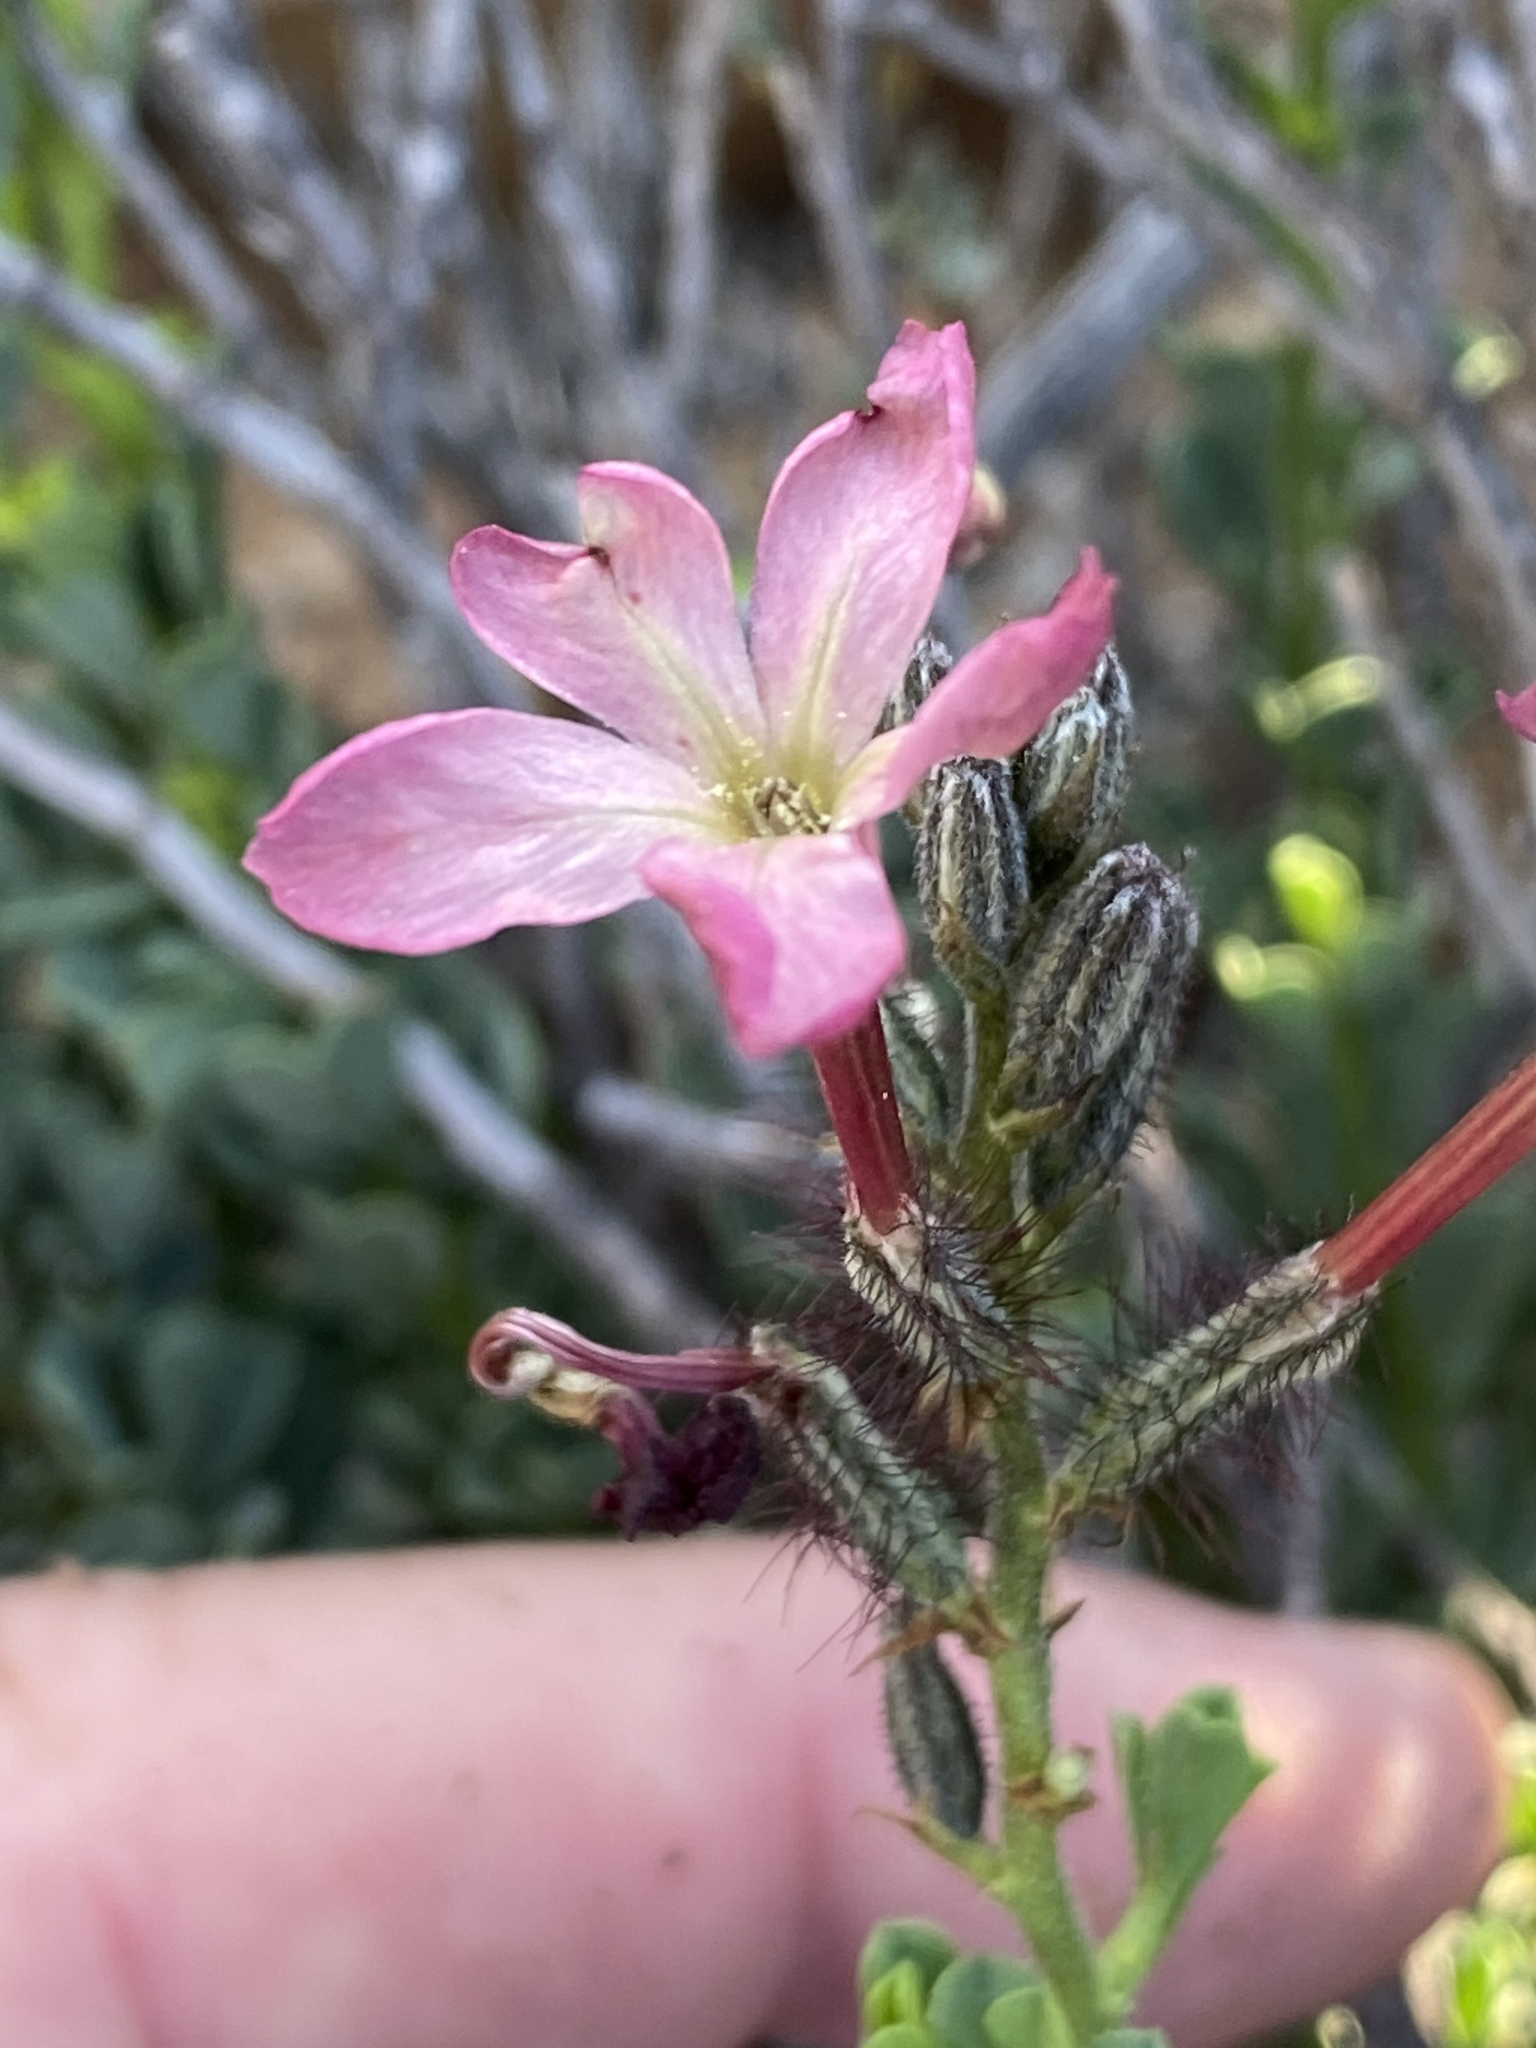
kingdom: Plantae
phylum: Tracheophyta
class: Magnoliopsida
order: Caryophyllales
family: Plumbaginaceae
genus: Plumbago
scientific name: Plumbago tristis
